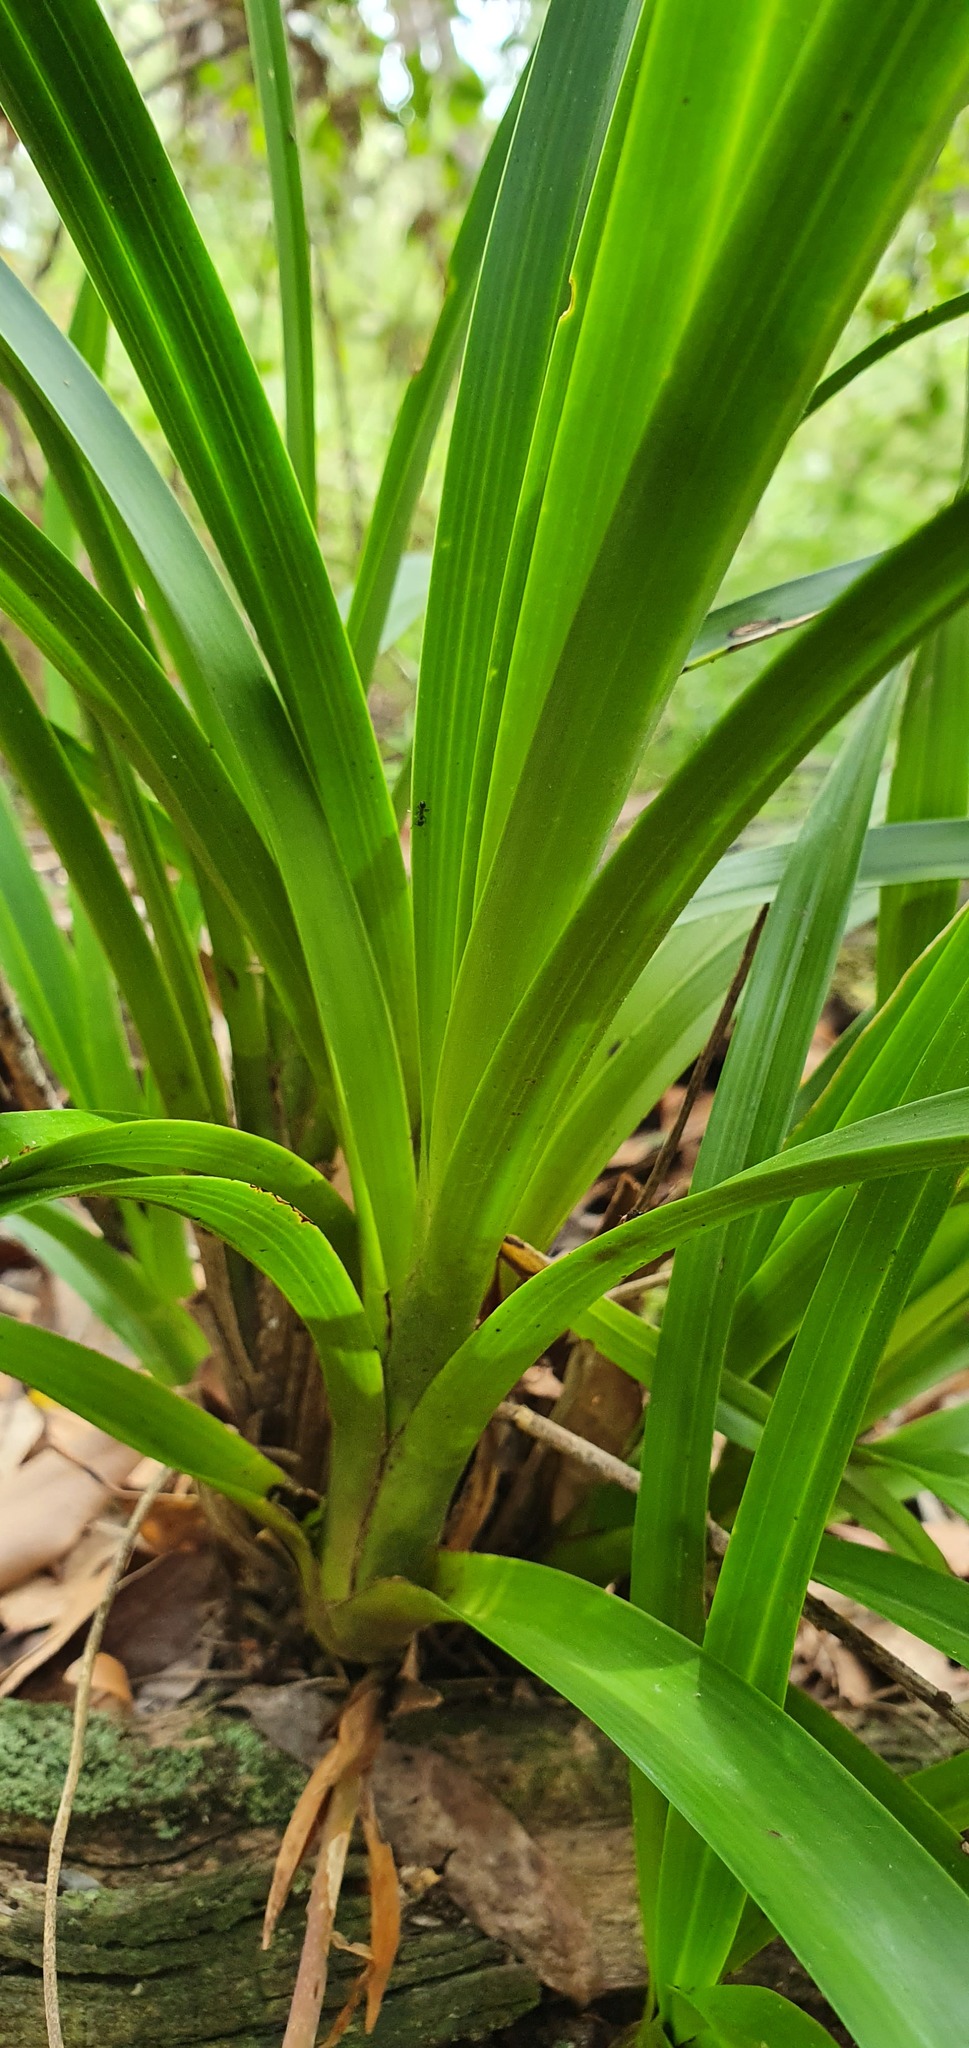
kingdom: Plantae
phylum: Tracheophyta
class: Liliopsida
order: Asparagales
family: Orchidaceae
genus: Cymbidium
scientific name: Cymbidium suave
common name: Snake orchid
